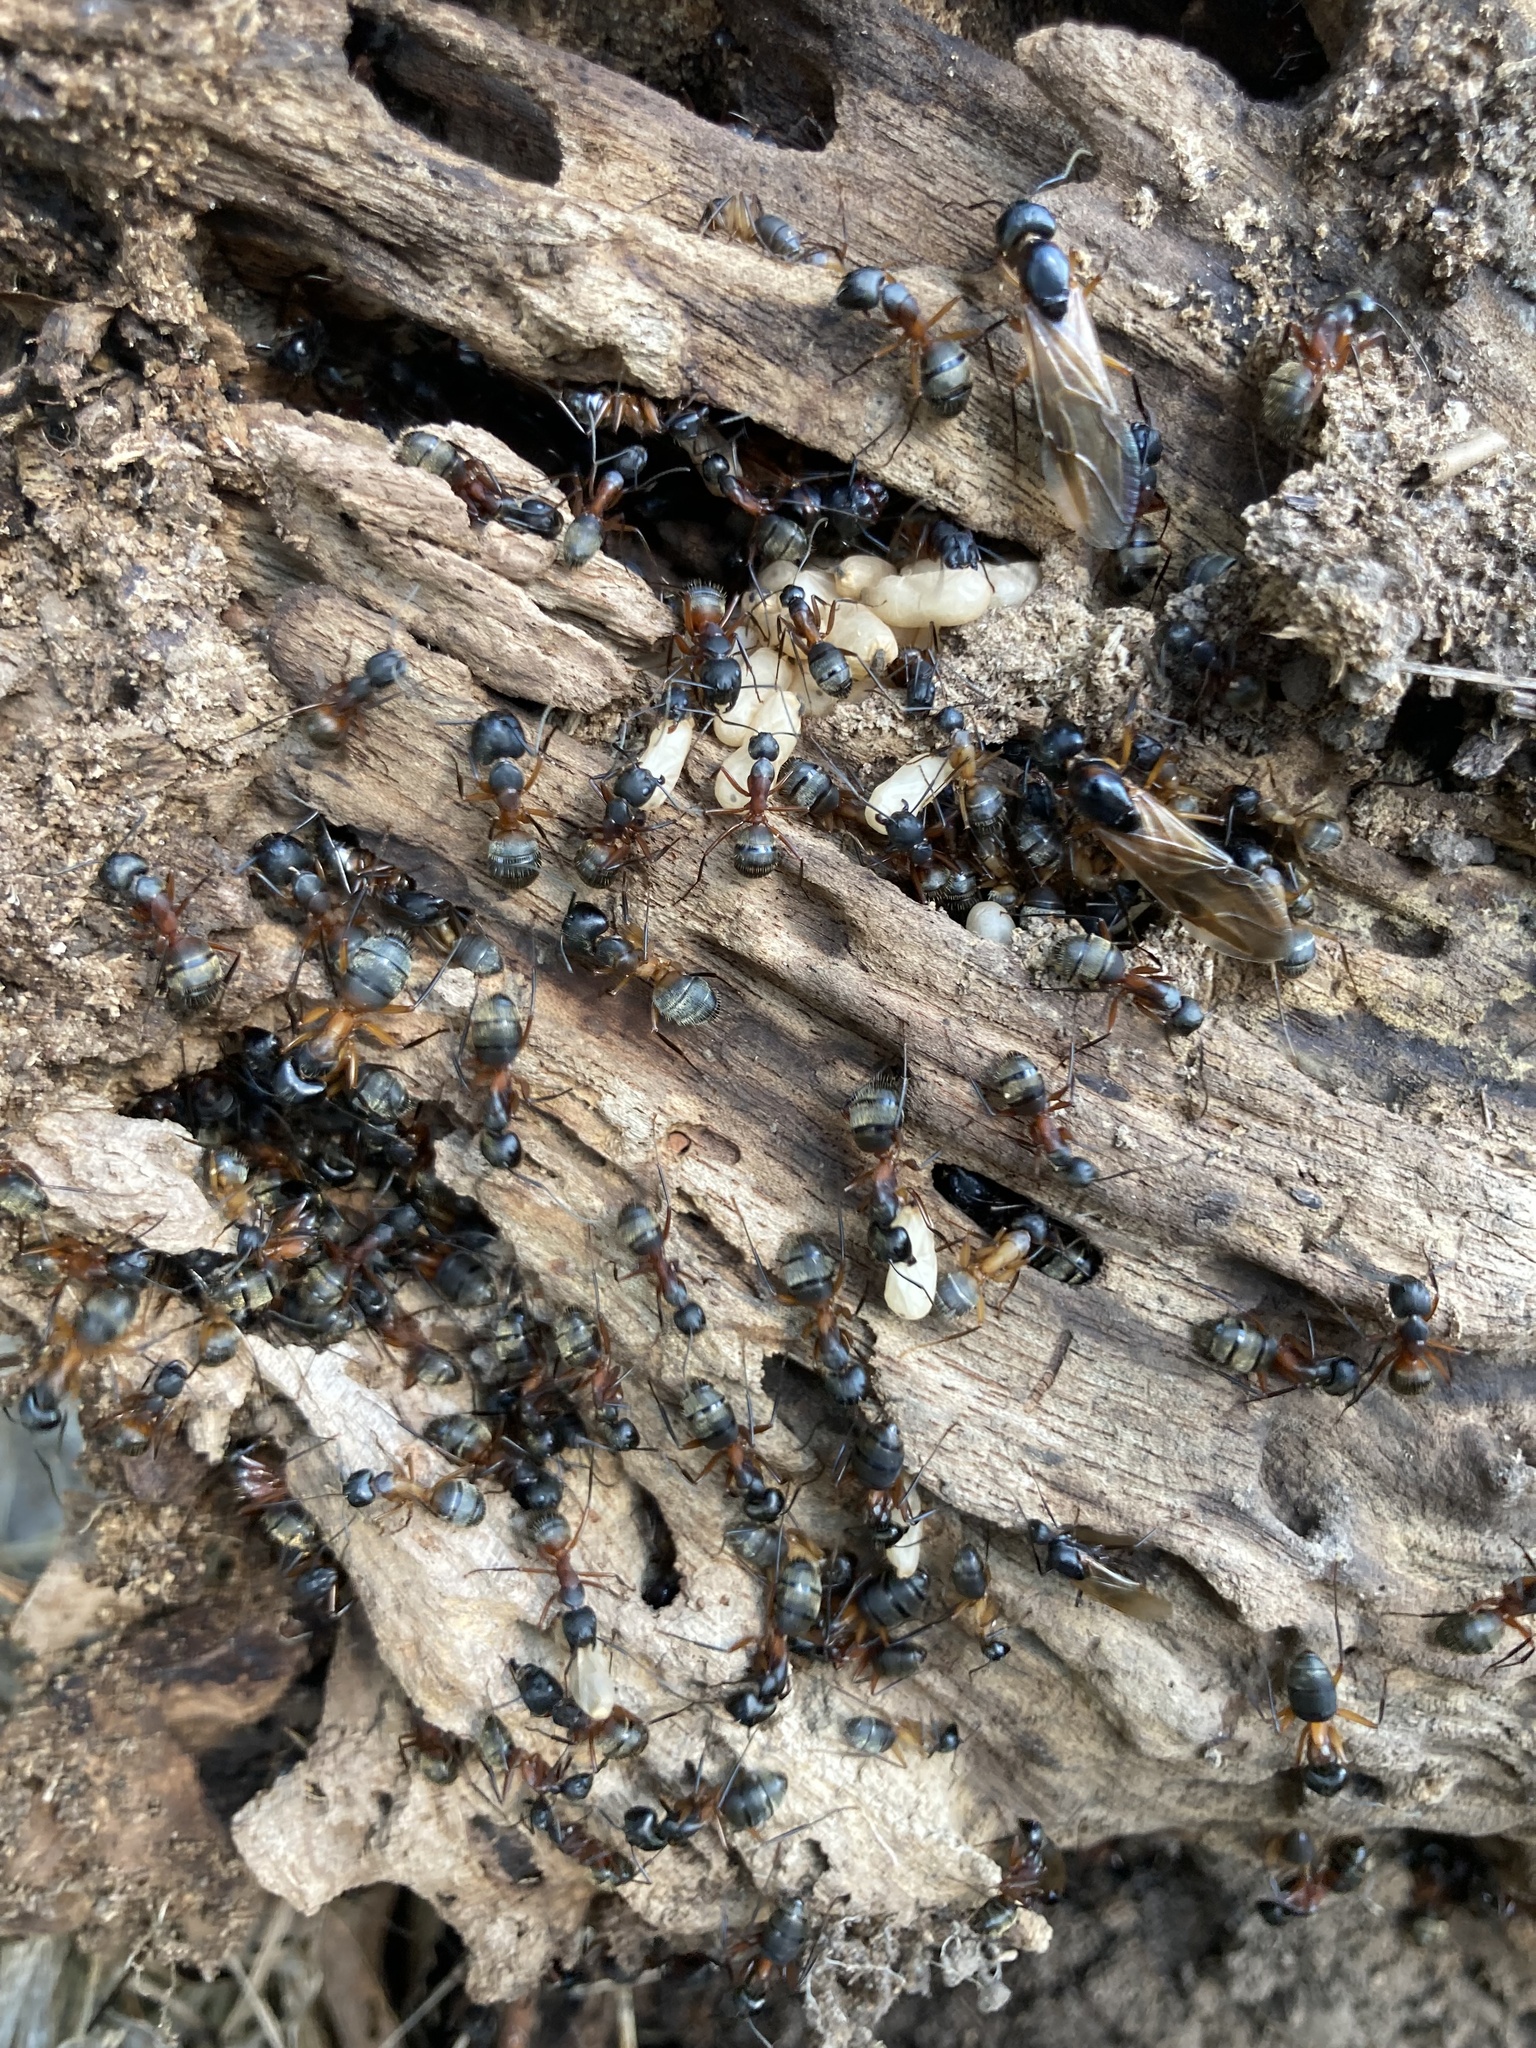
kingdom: Animalia
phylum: Arthropoda
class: Insecta
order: Hymenoptera
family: Formicidae
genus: Camponotus
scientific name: Camponotus chromaiodes
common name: Red carpenter ant
